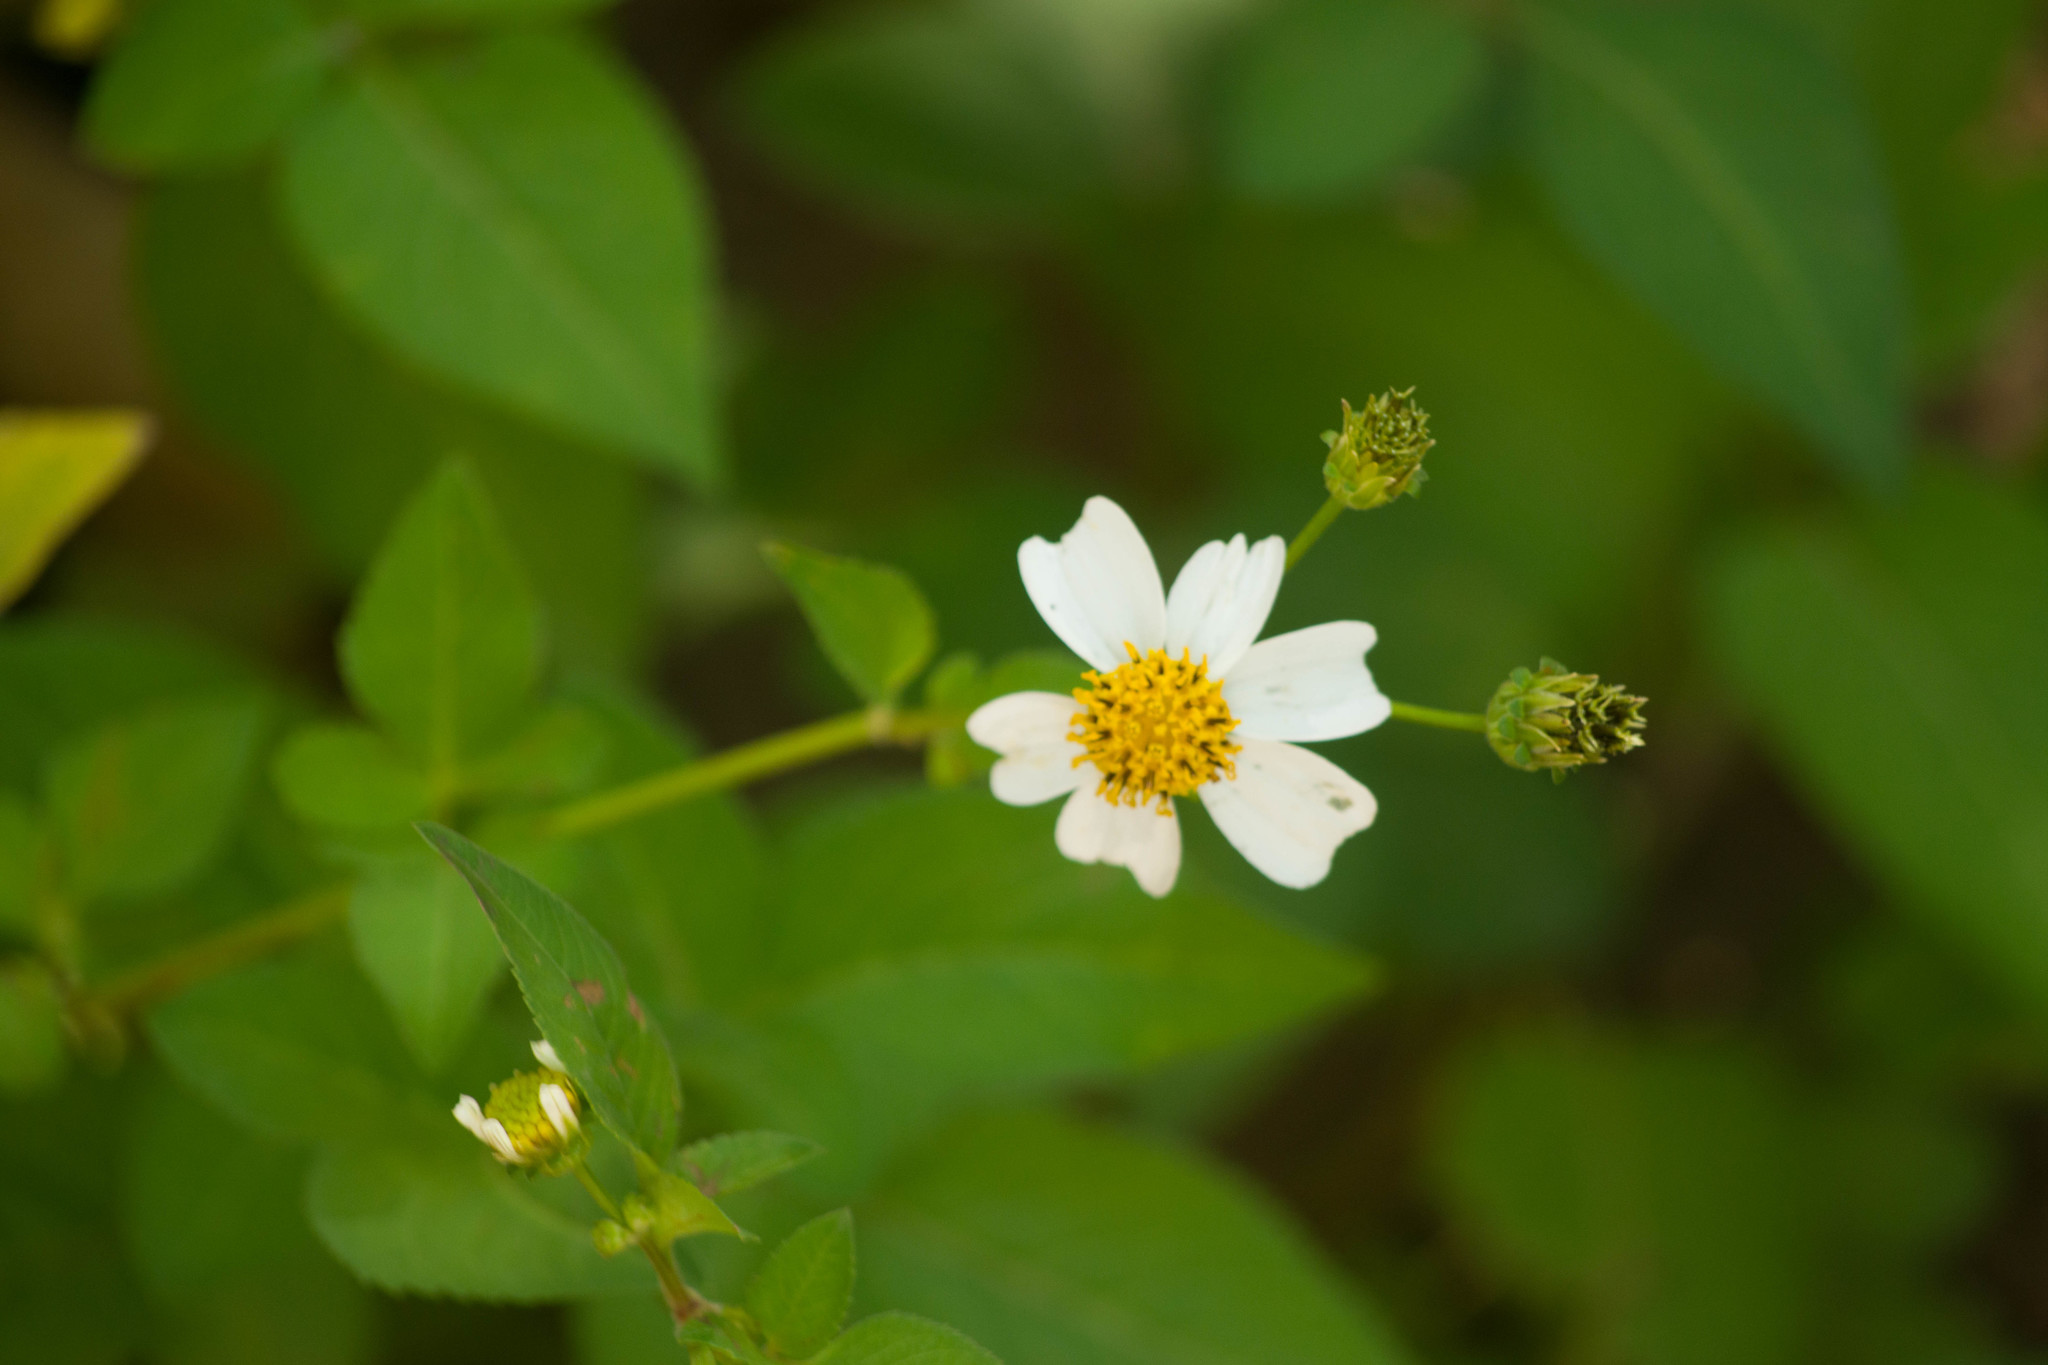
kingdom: Plantae
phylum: Tracheophyta
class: Magnoliopsida
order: Asterales
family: Asteraceae
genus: Bidens
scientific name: Bidens alba
